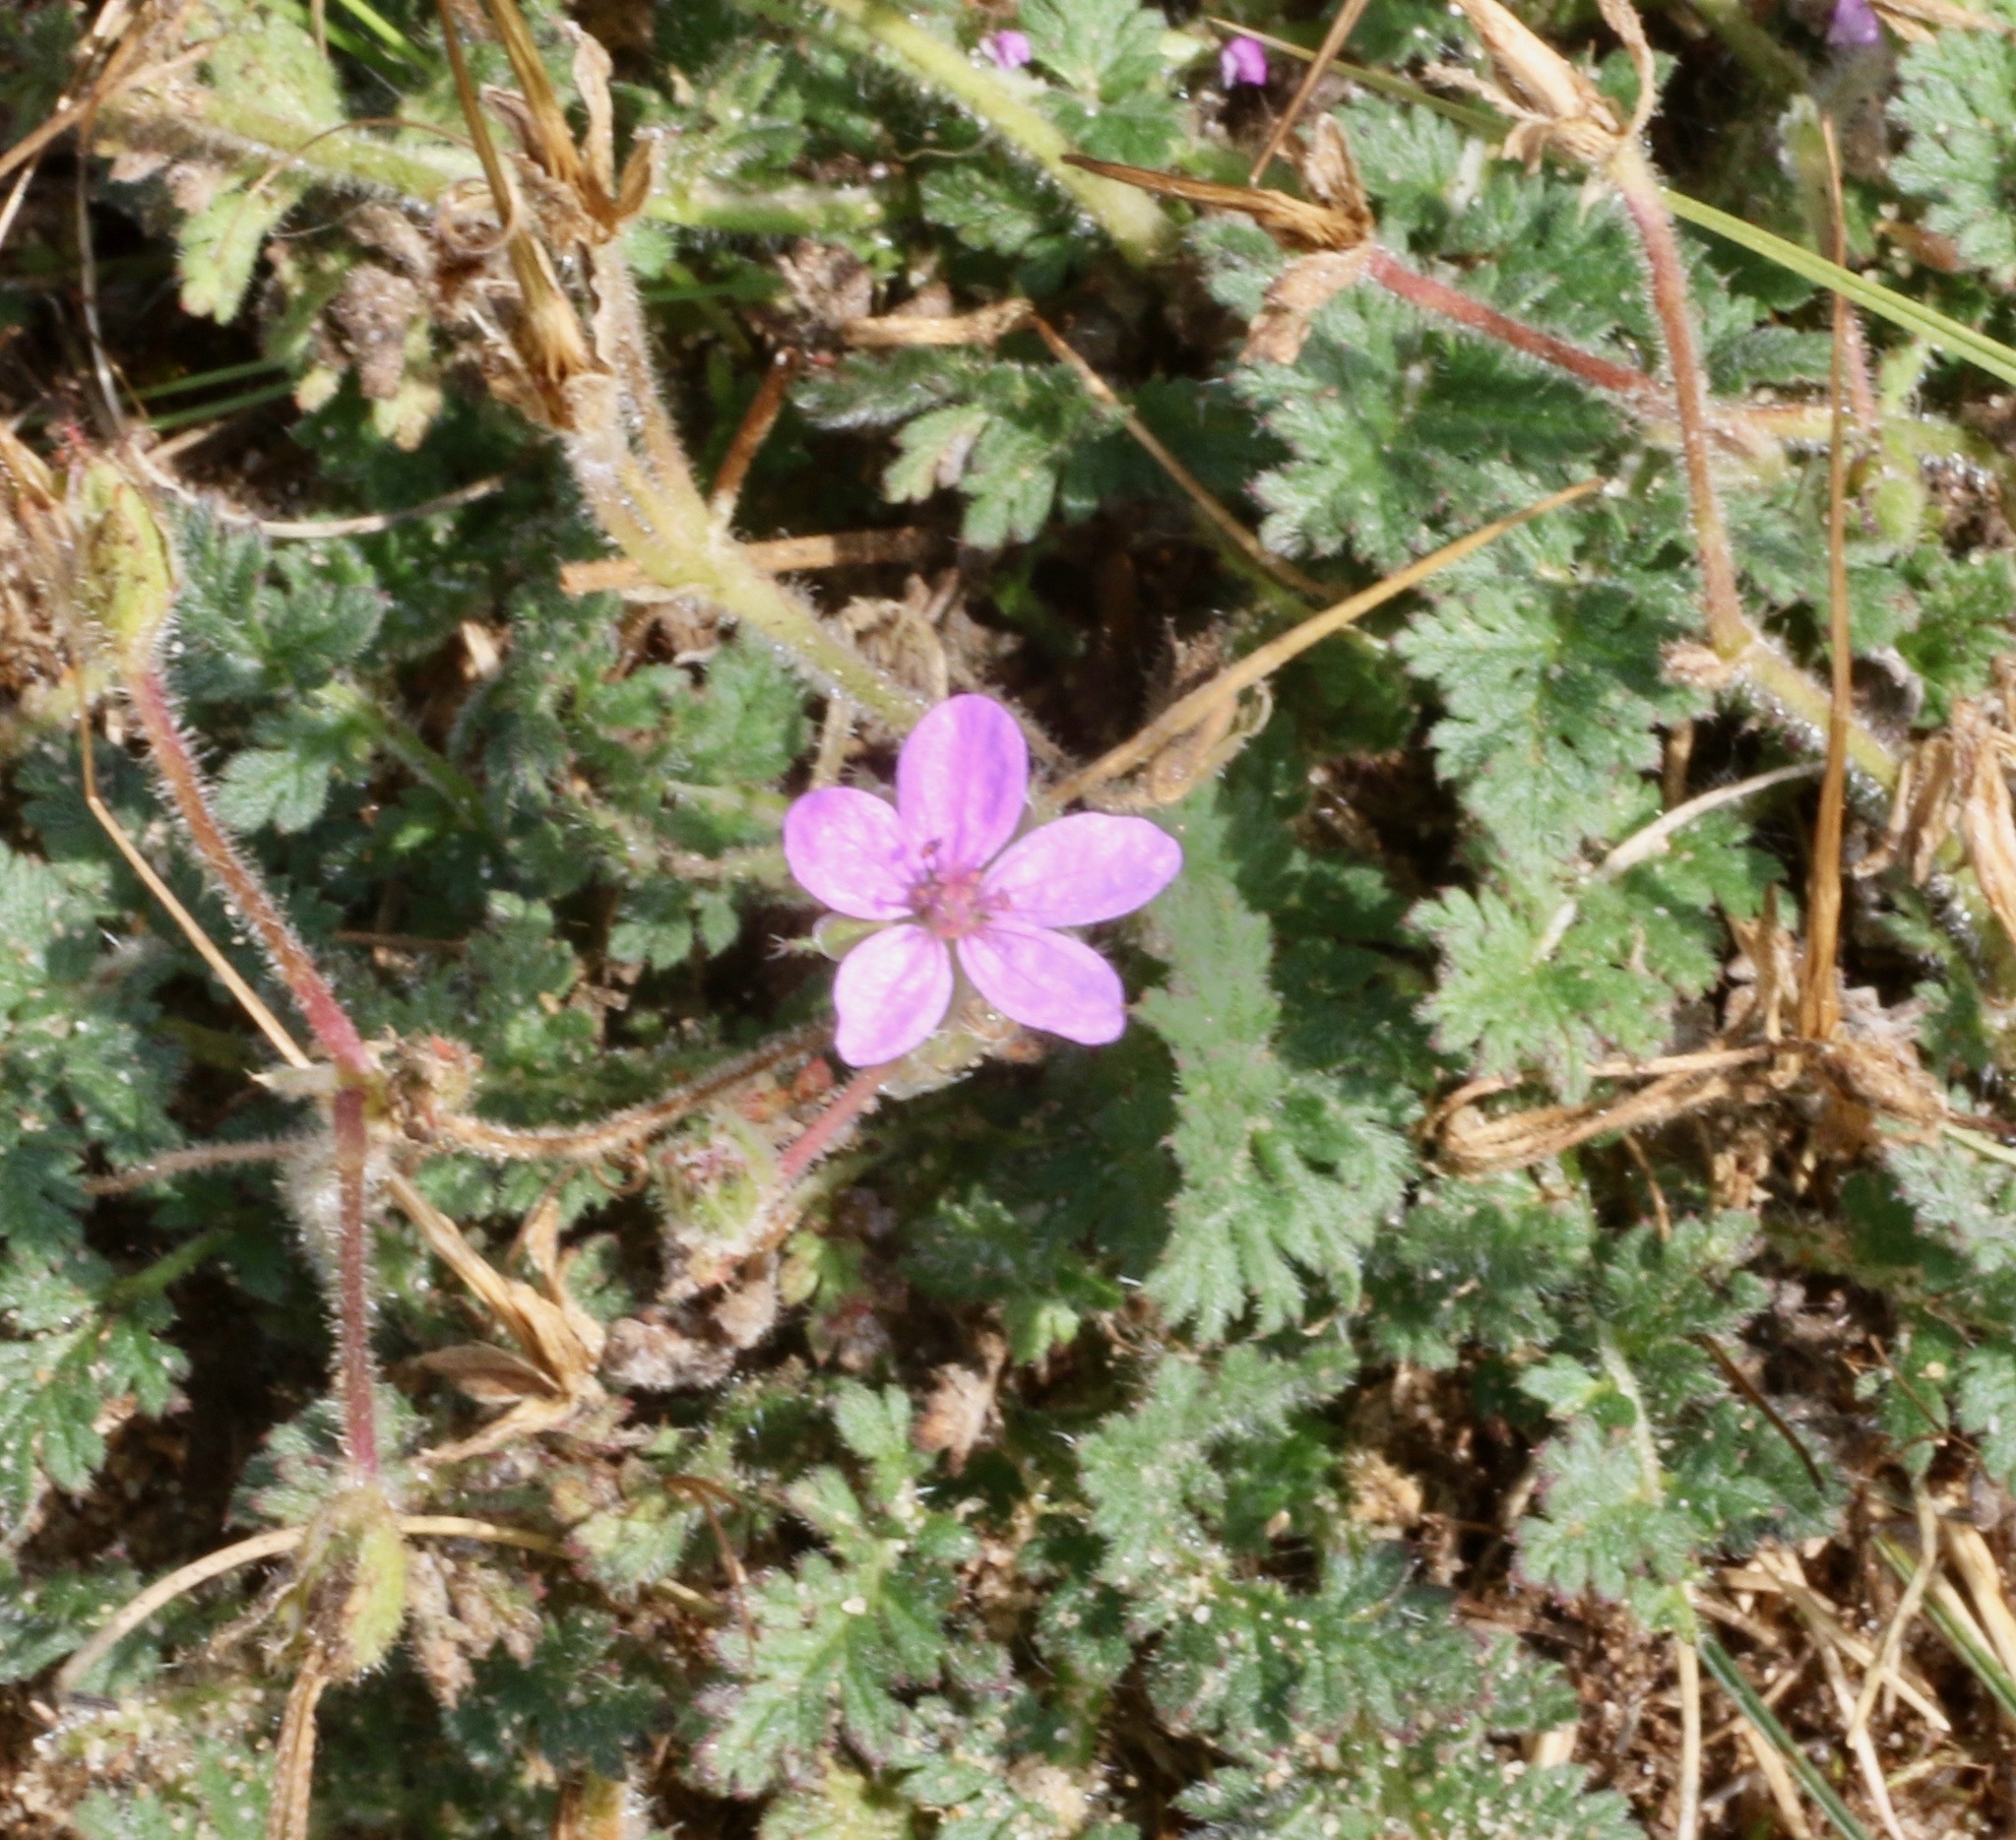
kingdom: Plantae
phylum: Tracheophyta
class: Magnoliopsida
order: Geraniales
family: Geraniaceae
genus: Erodium
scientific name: Erodium cicutarium
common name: Common stork's-bill
